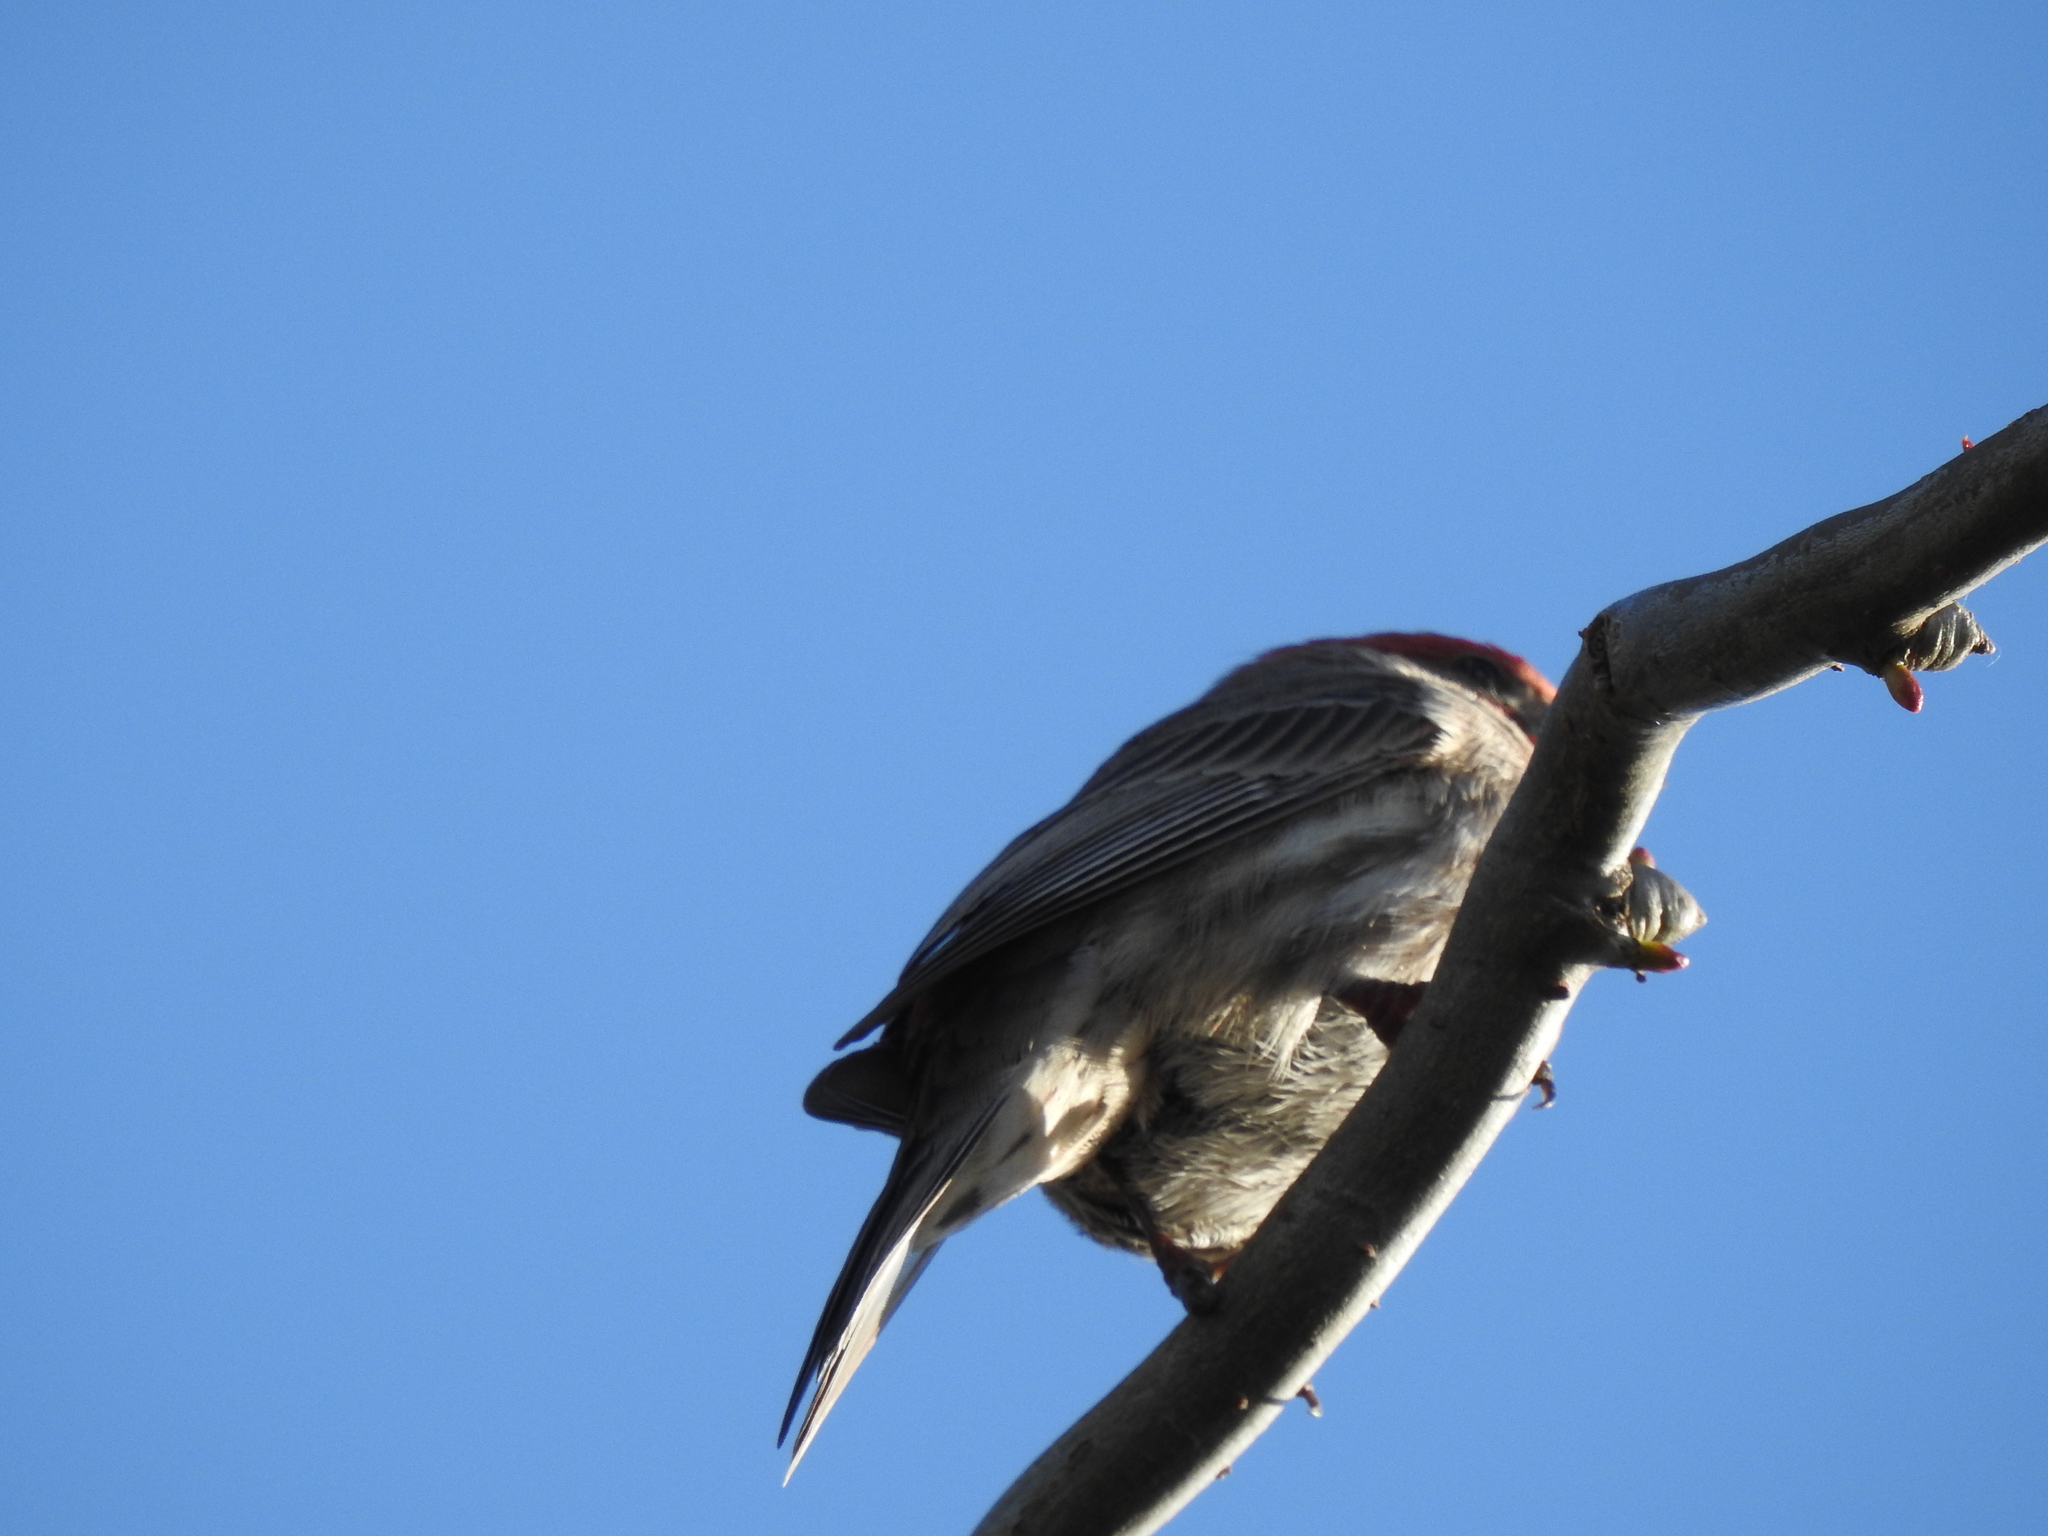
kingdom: Animalia
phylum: Chordata
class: Aves
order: Passeriformes
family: Fringillidae
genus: Haemorhous
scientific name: Haemorhous mexicanus
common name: House finch
